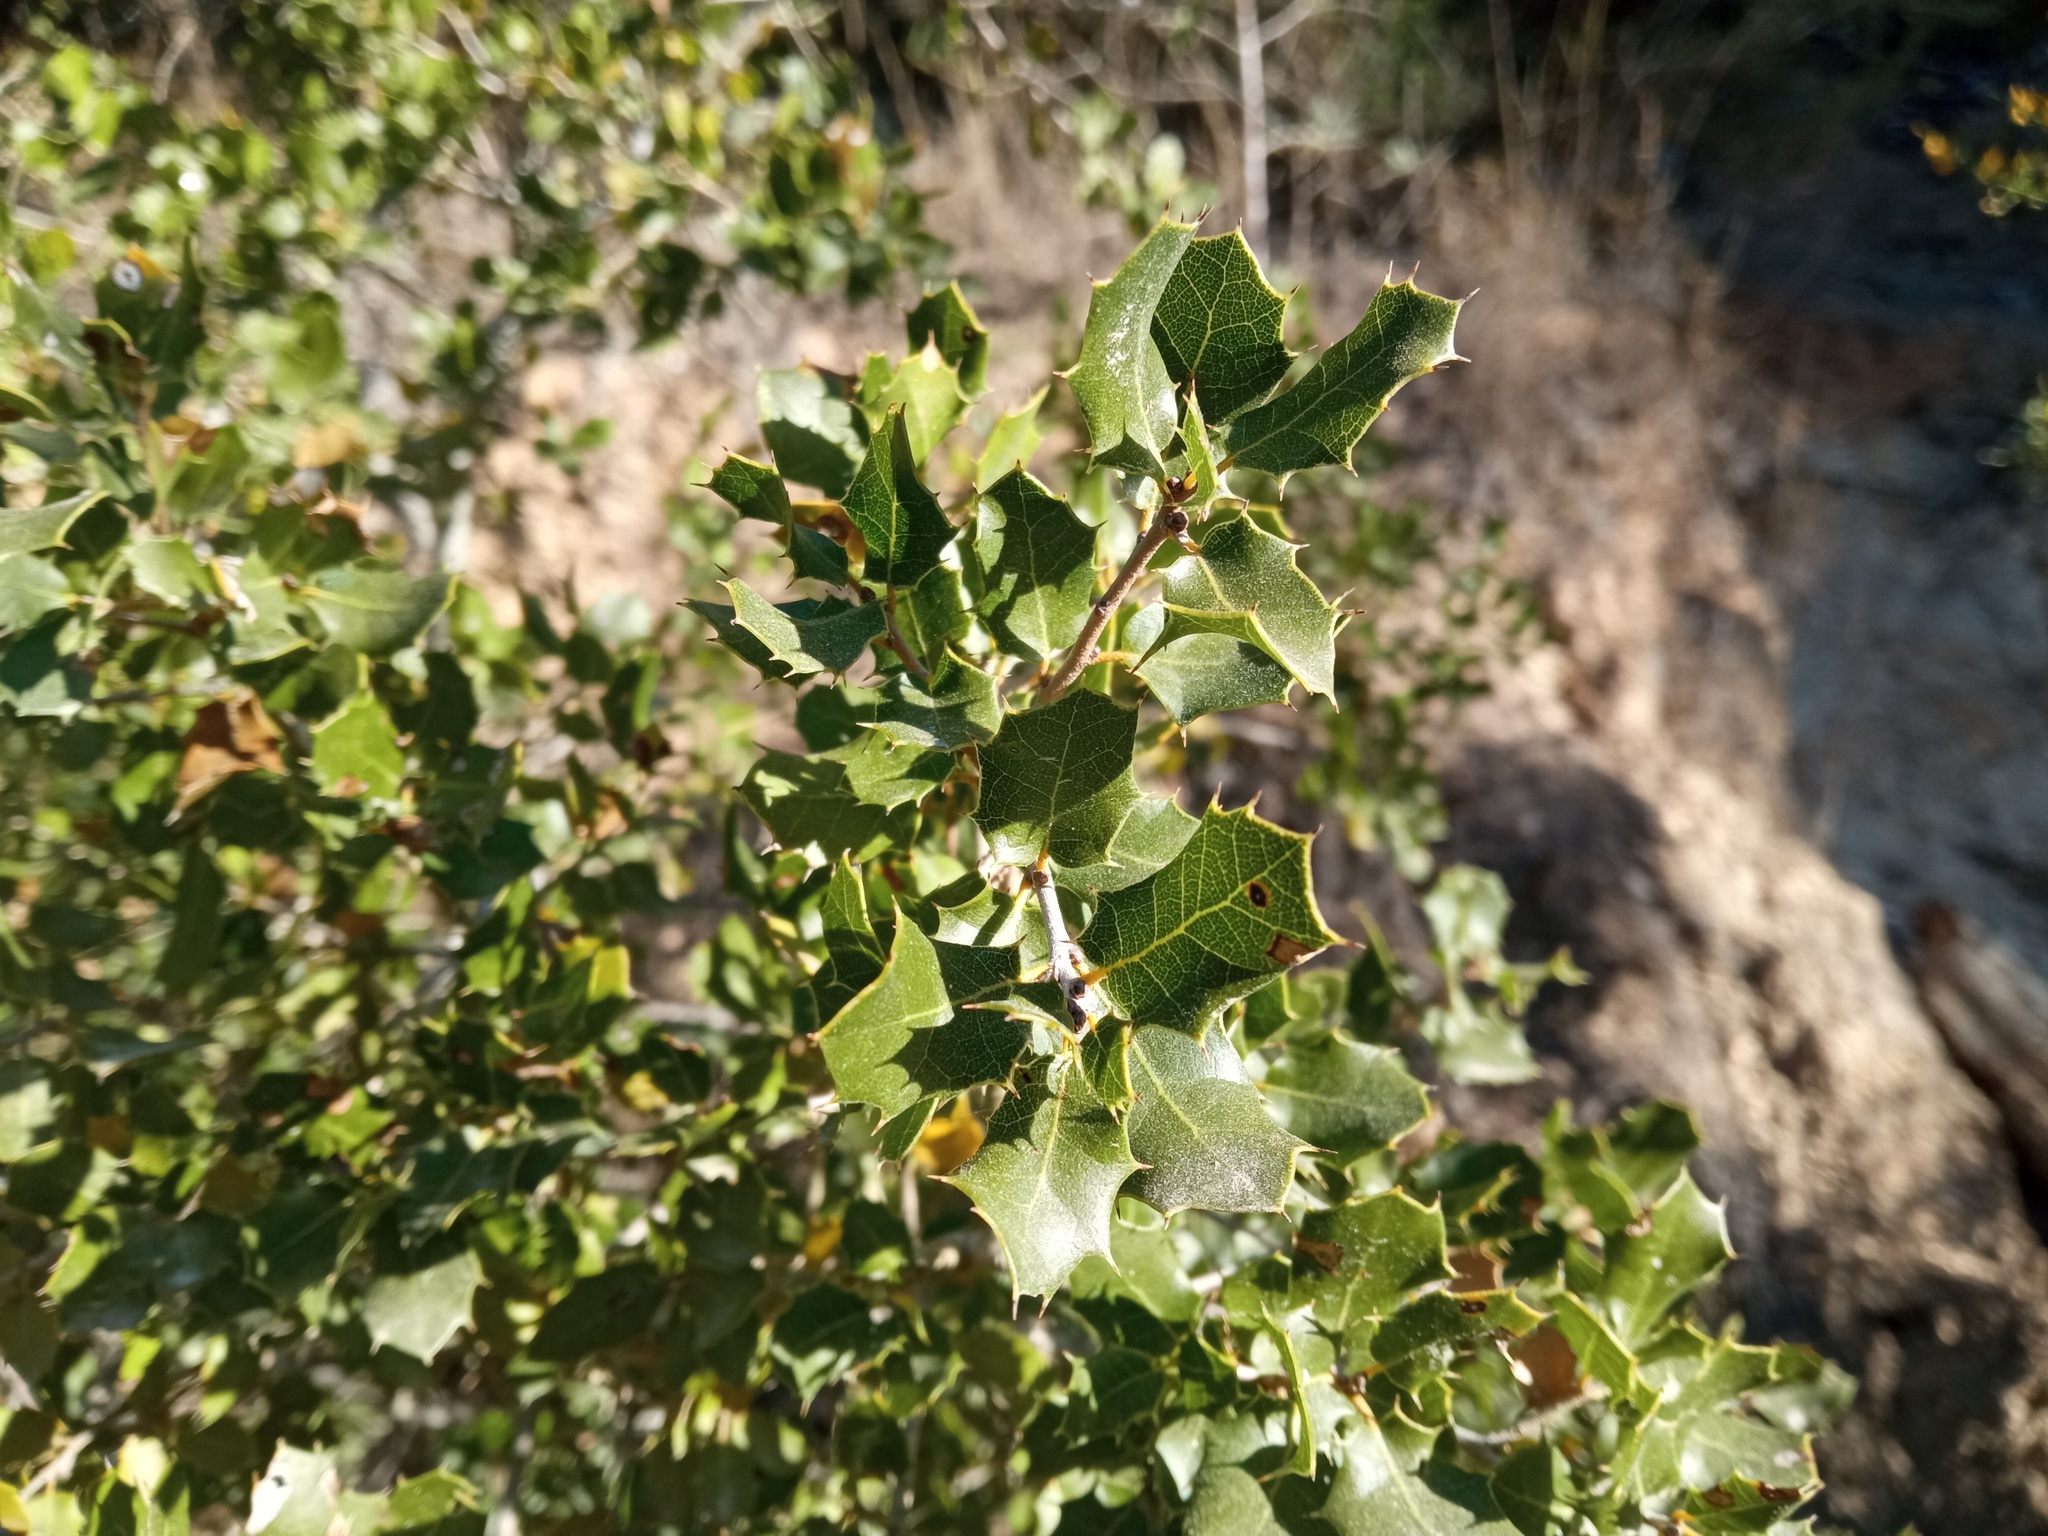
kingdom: Plantae
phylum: Tracheophyta
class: Magnoliopsida
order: Fagales
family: Fagaceae
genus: Quercus
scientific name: Quercus coccifera
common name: Kermes oak
